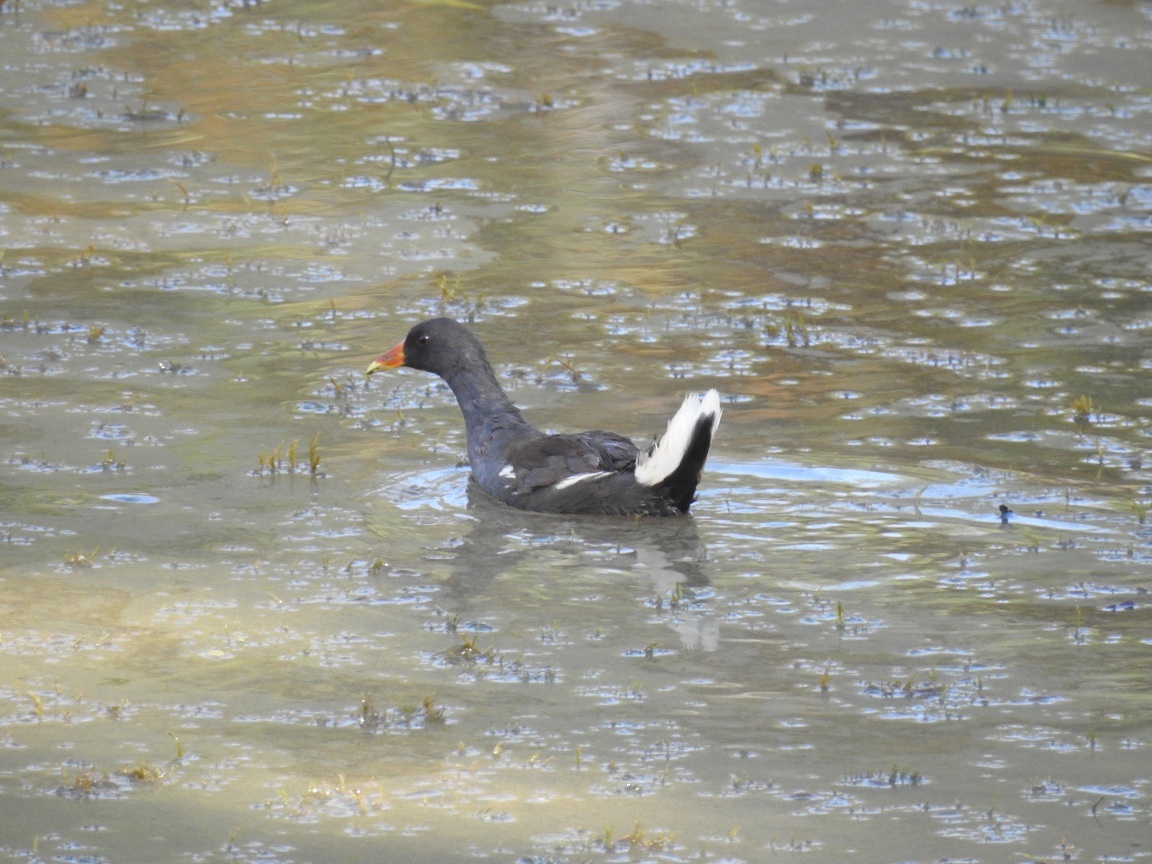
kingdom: Animalia
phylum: Chordata
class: Aves
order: Gruiformes
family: Rallidae
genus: Gallinula
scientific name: Gallinula chloropus
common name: Common moorhen
